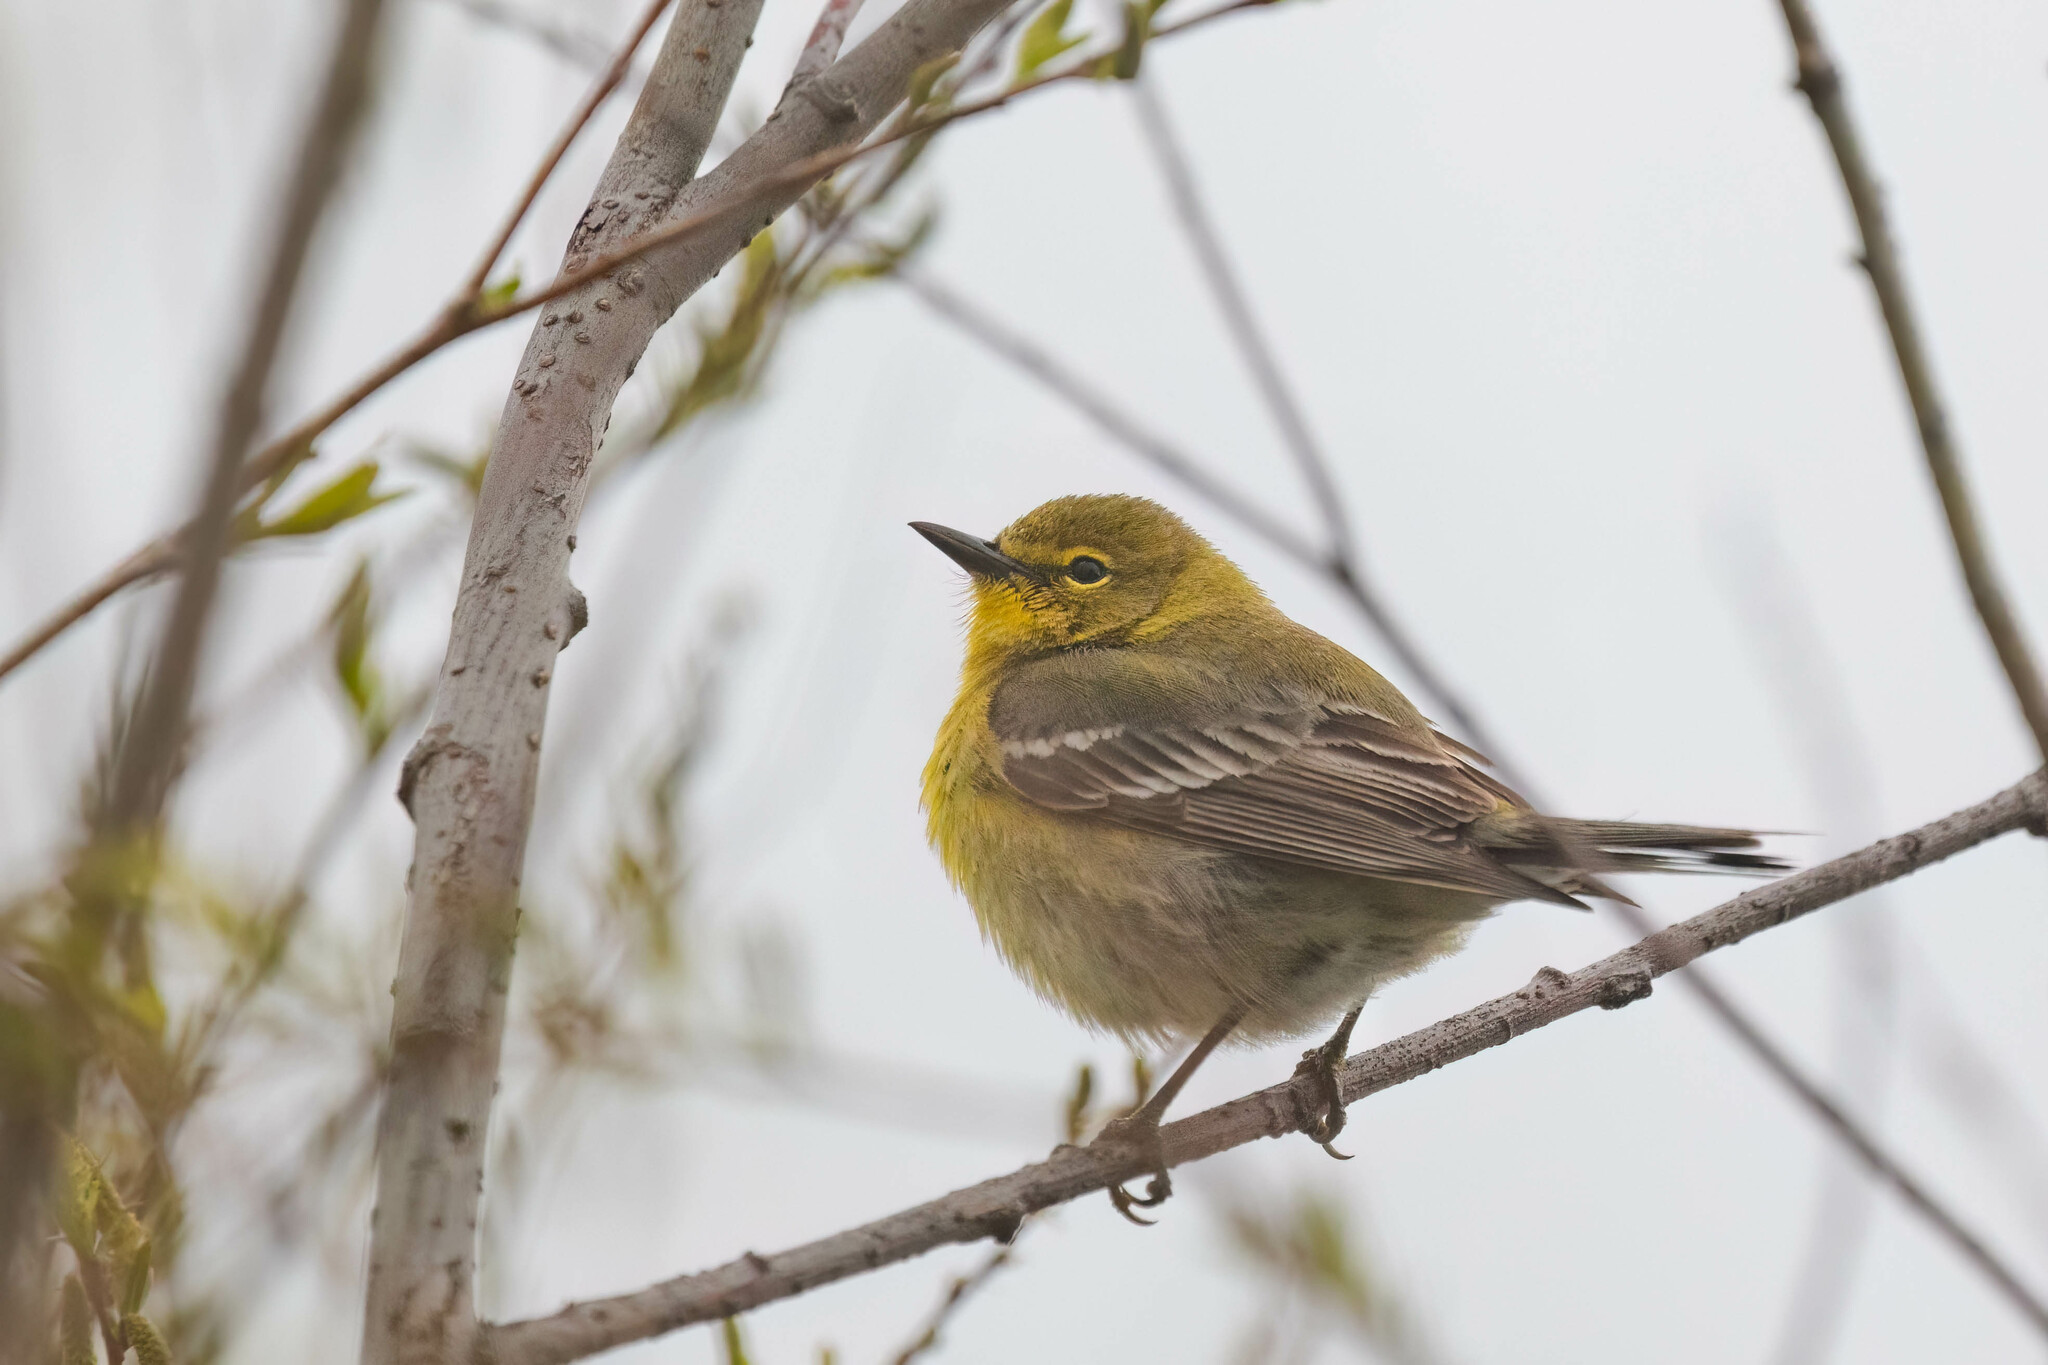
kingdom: Animalia
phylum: Chordata
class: Aves
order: Passeriformes
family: Parulidae
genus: Setophaga
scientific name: Setophaga pinus
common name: Pine warbler
